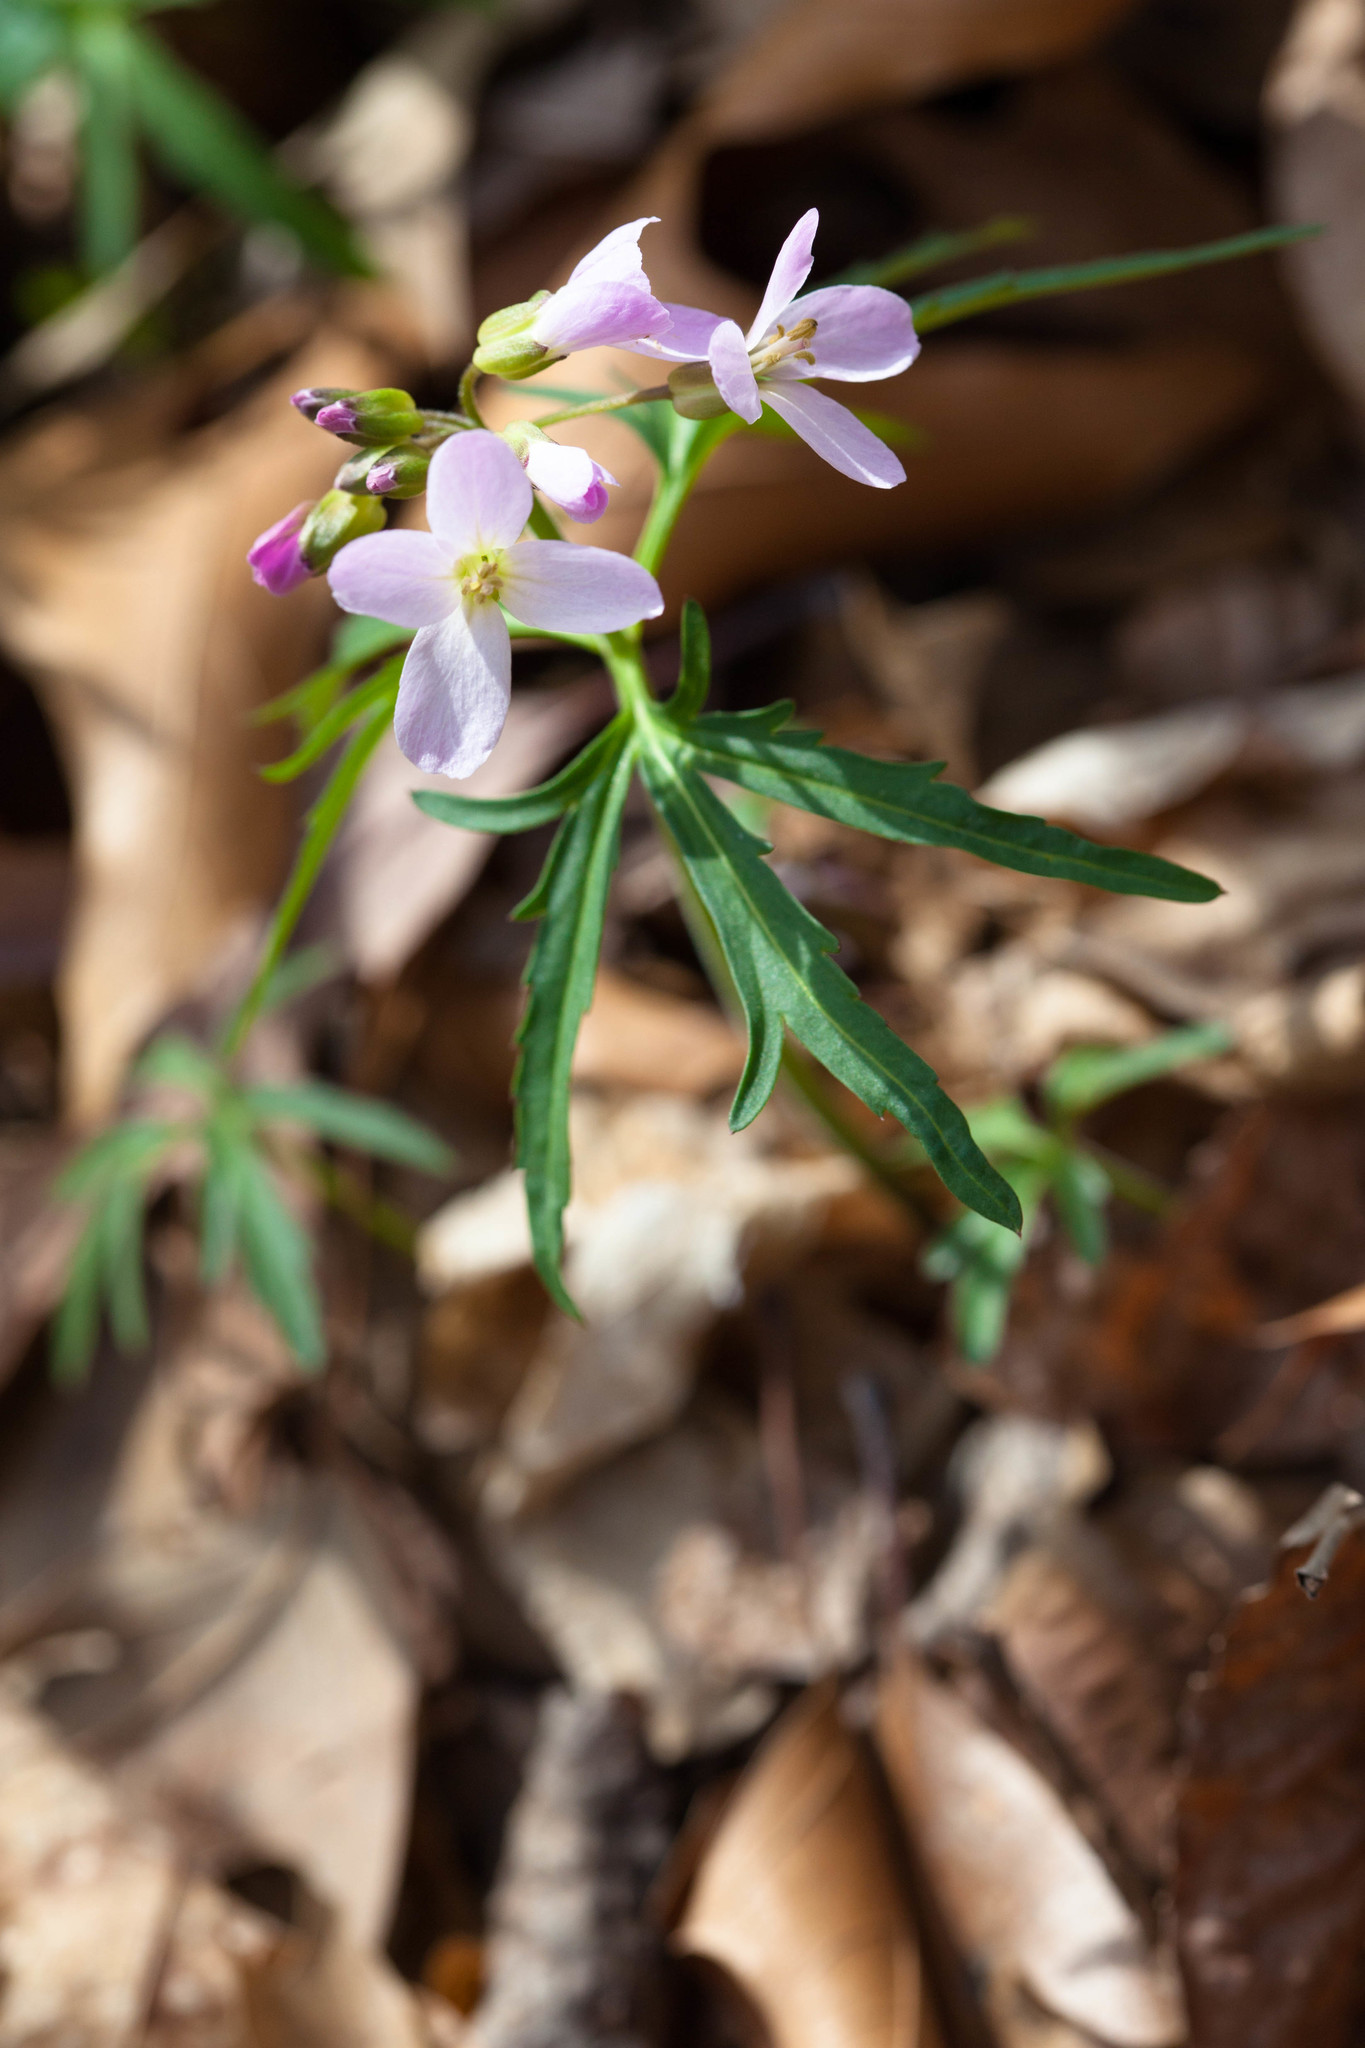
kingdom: Plantae
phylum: Tracheophyta
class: Magnoliopsida
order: Brassicales
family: Brassicaceae
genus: Cardamine
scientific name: Cardamine concatenata
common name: Cut-leaf toothcup
